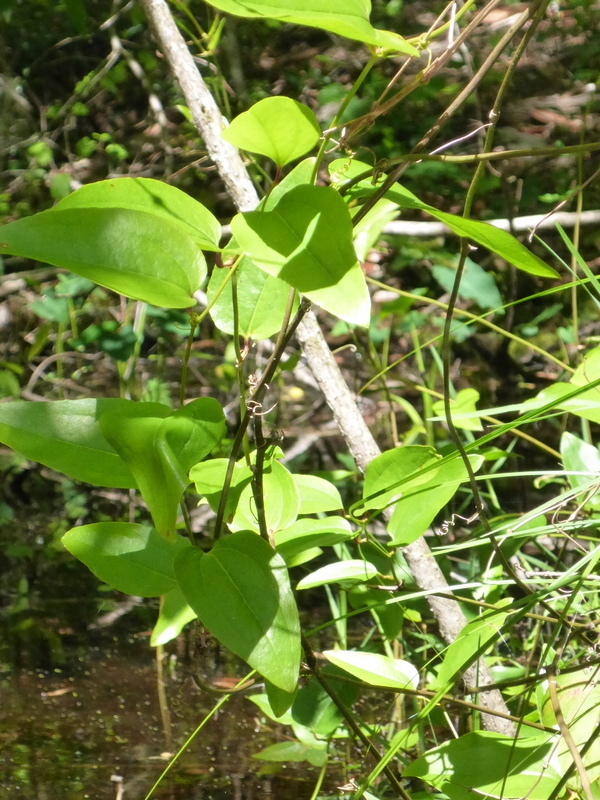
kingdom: Plantae
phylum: Tracheophyta
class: Liliopsida
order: Liliales
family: Smilacaceae
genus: Smilax
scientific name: Smilax bona-nox
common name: Catbrier
